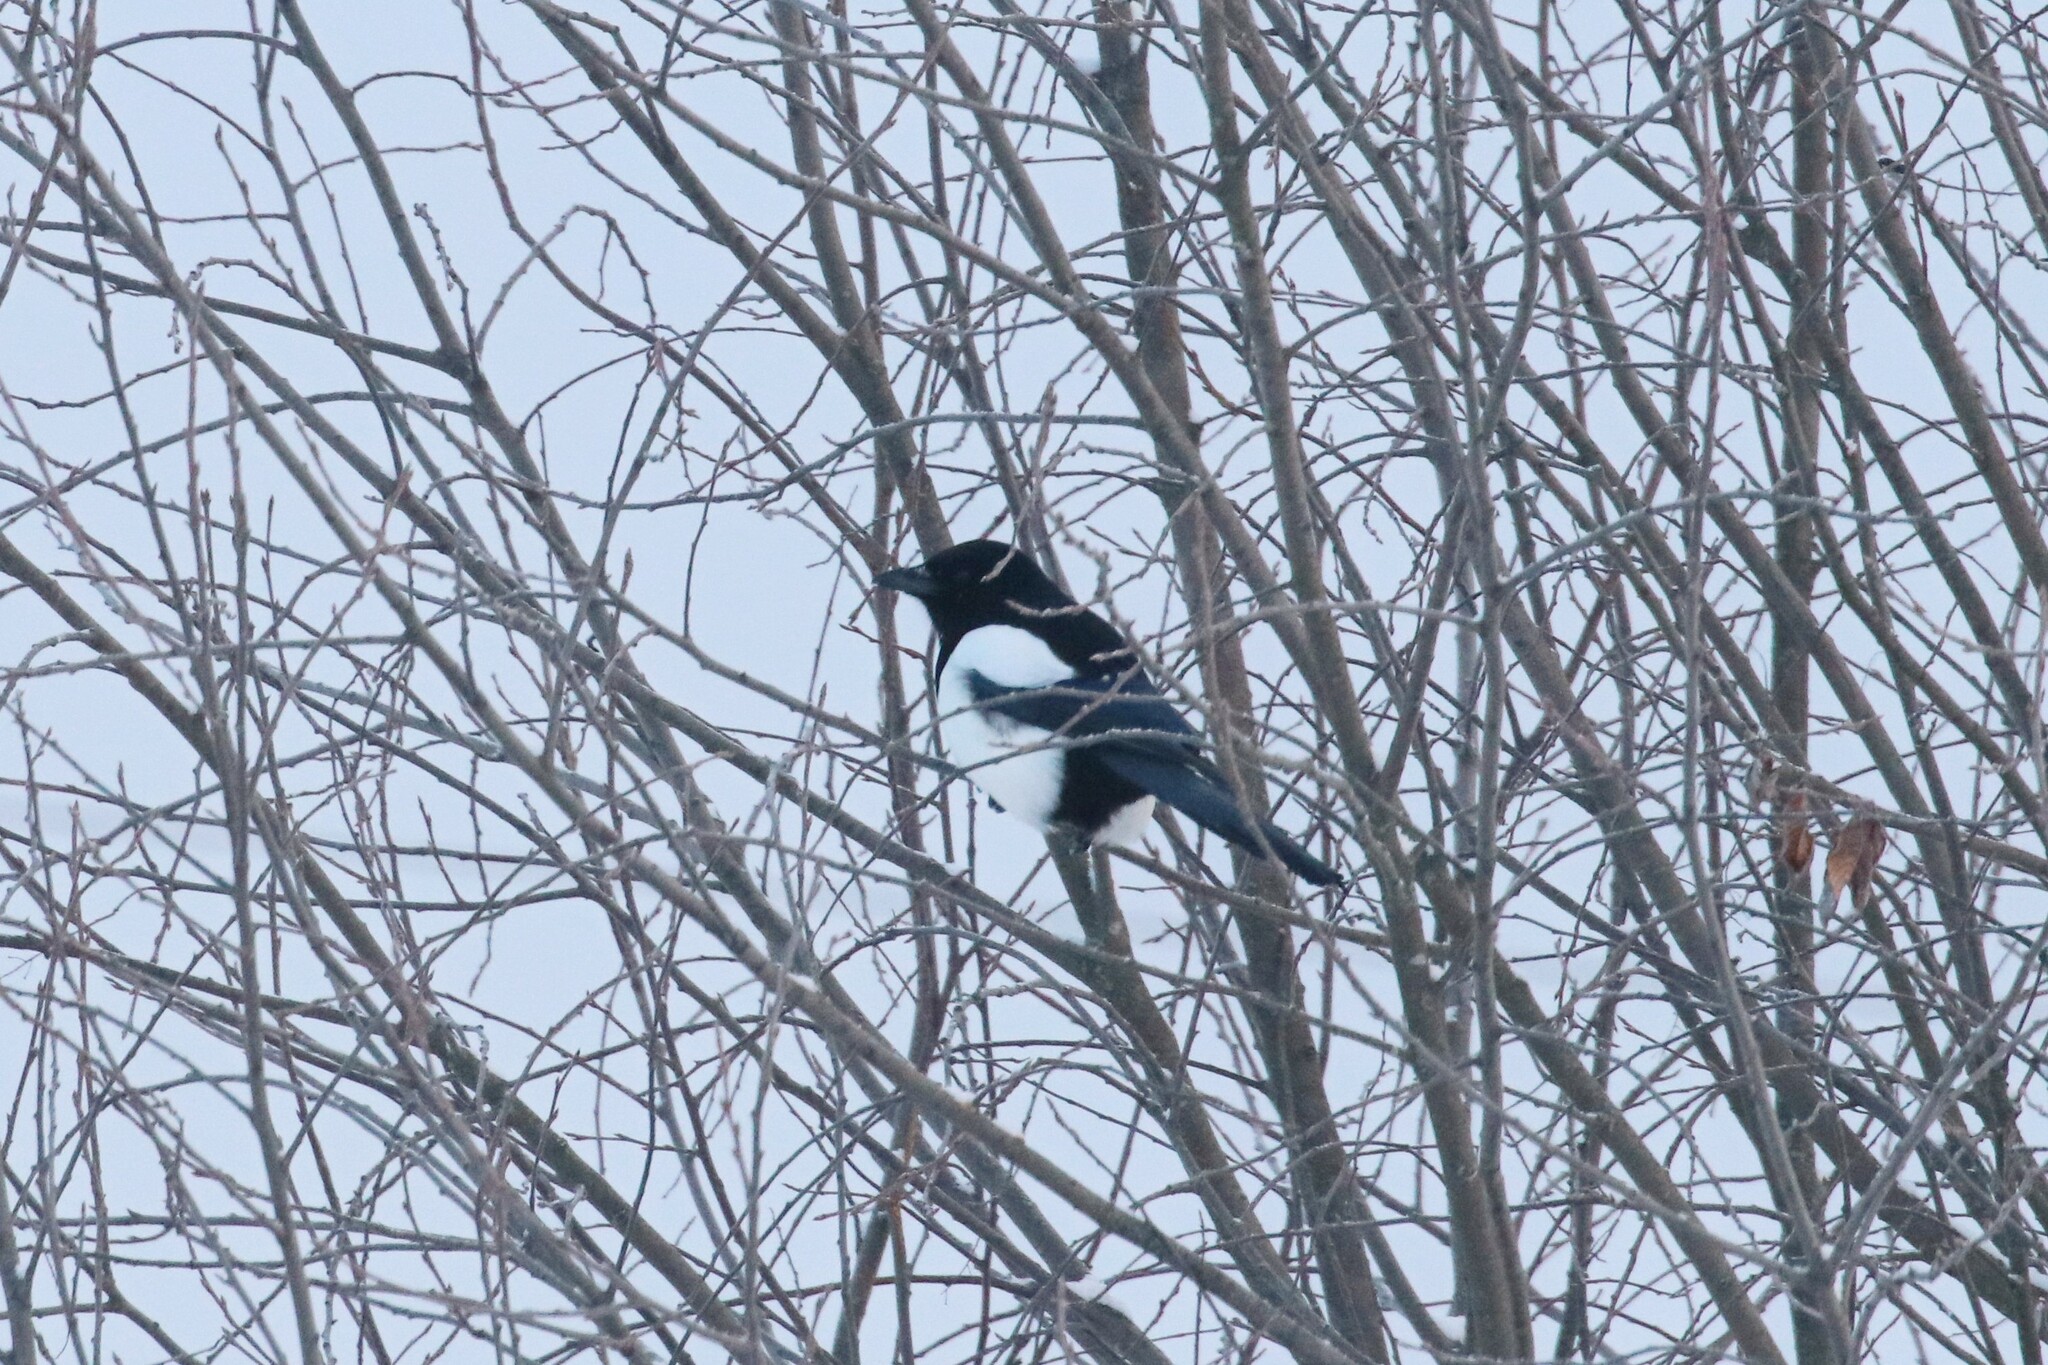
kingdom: Animalia
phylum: Chordata
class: Aves
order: Passeriformes
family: Corvidae
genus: Pica
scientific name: Pica pica
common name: Eurasian magpie
